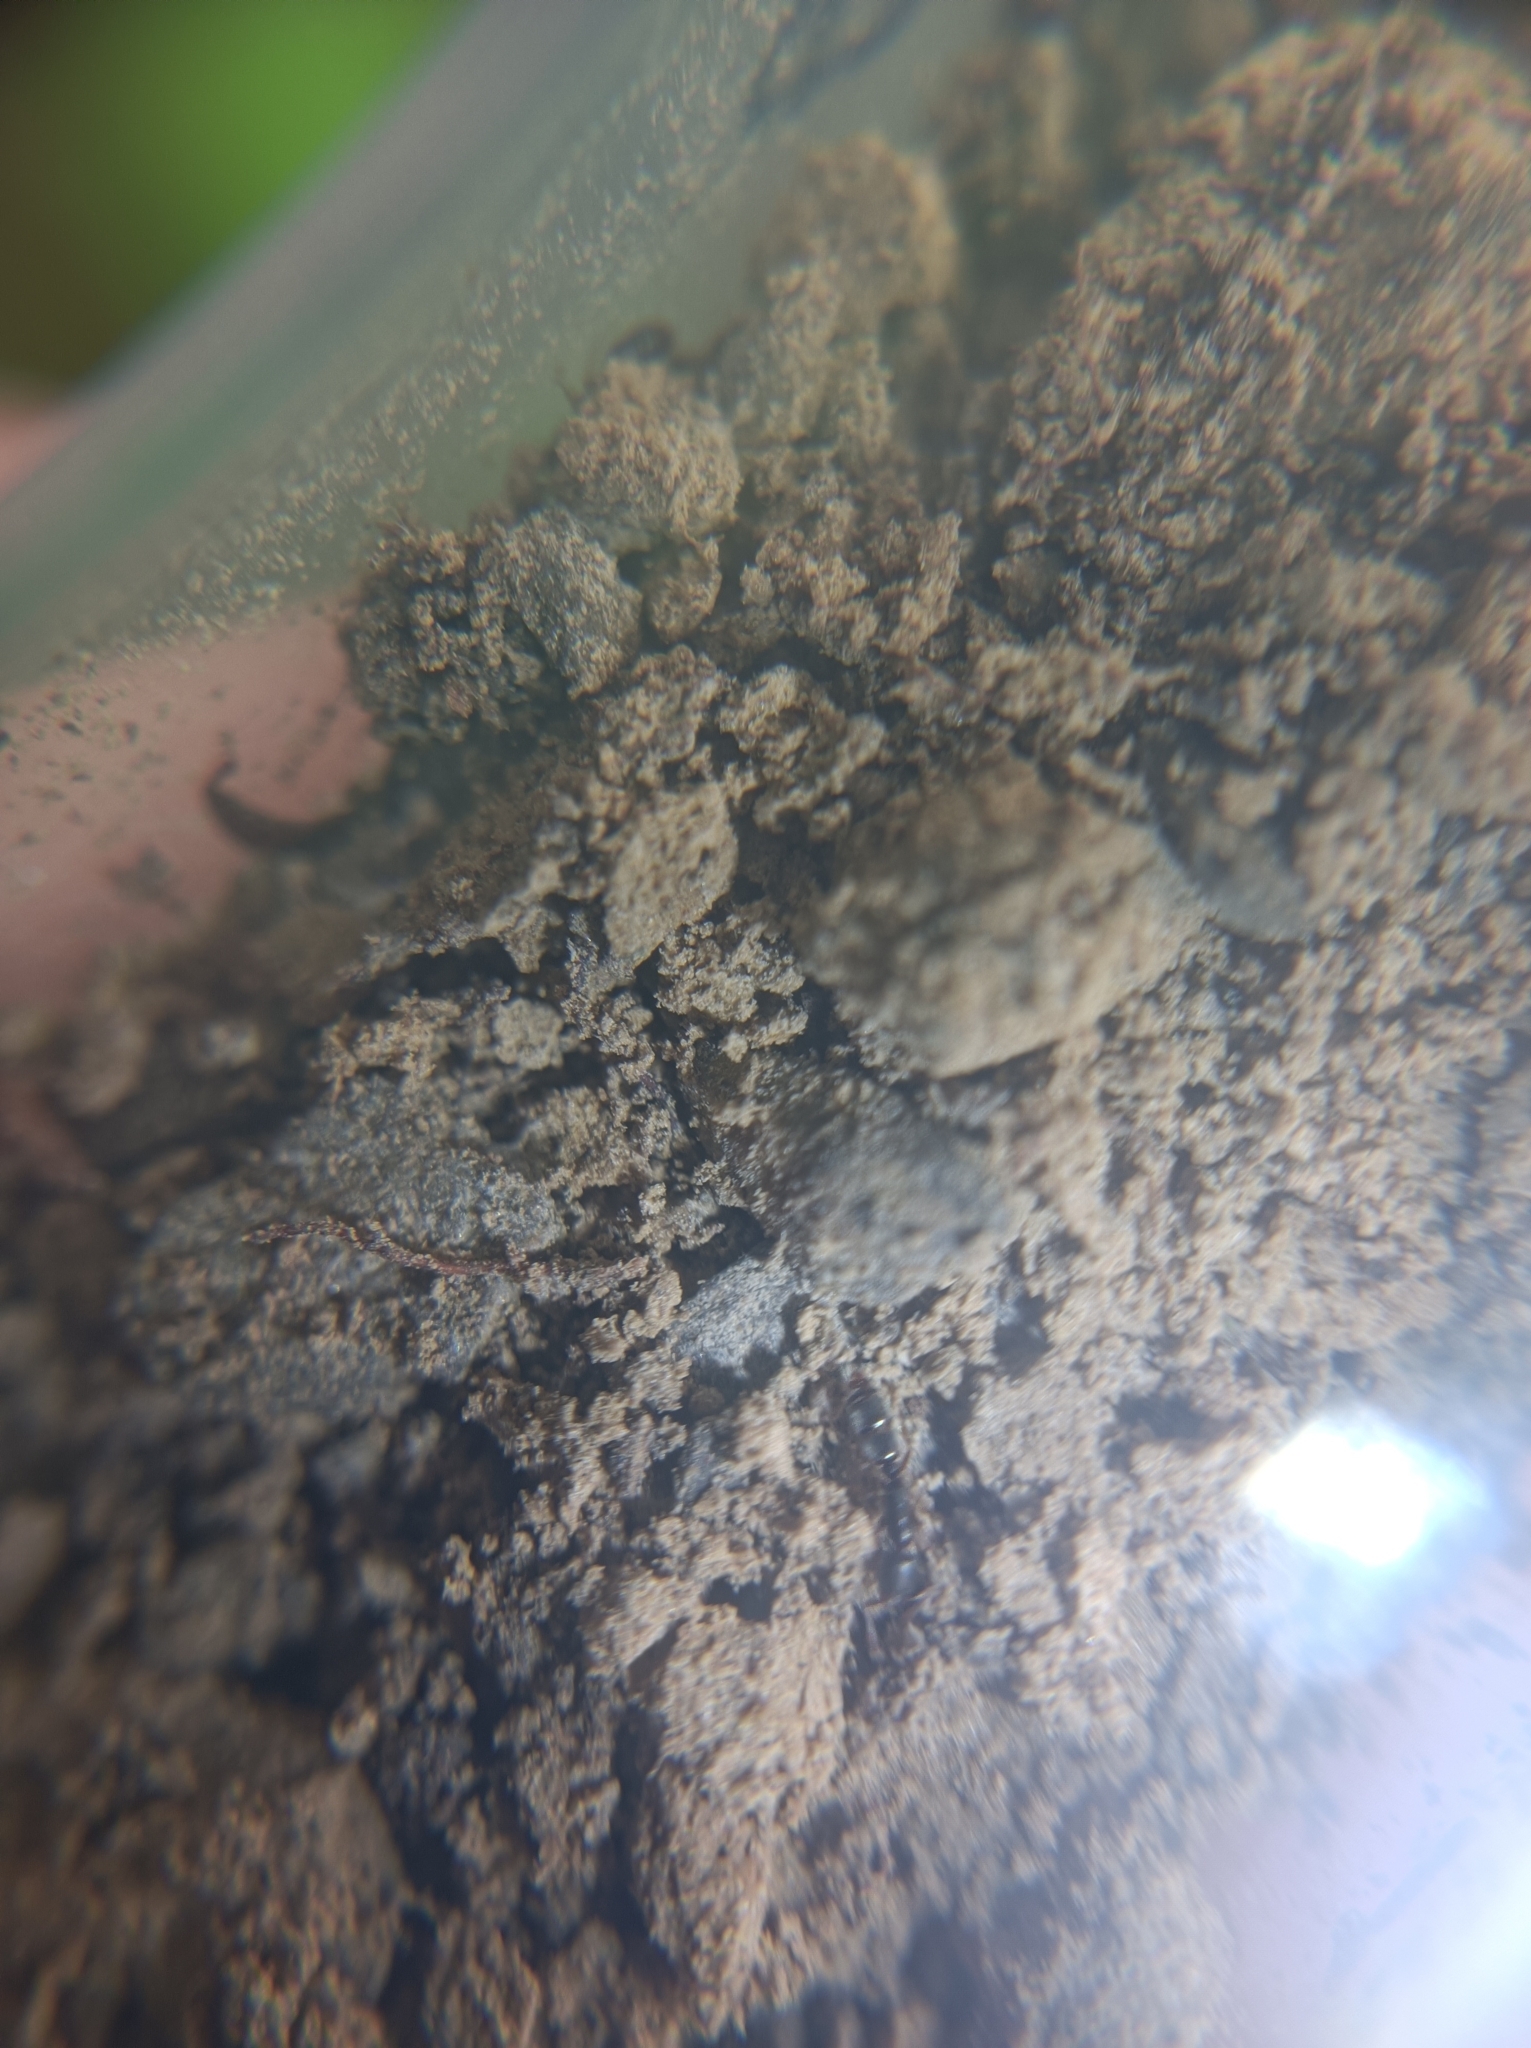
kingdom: Animalia
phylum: Arthropoda
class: Insecta
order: Hymenoptera
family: Formicidae
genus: Ponera
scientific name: Ponera coarctata
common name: Indolent ant
